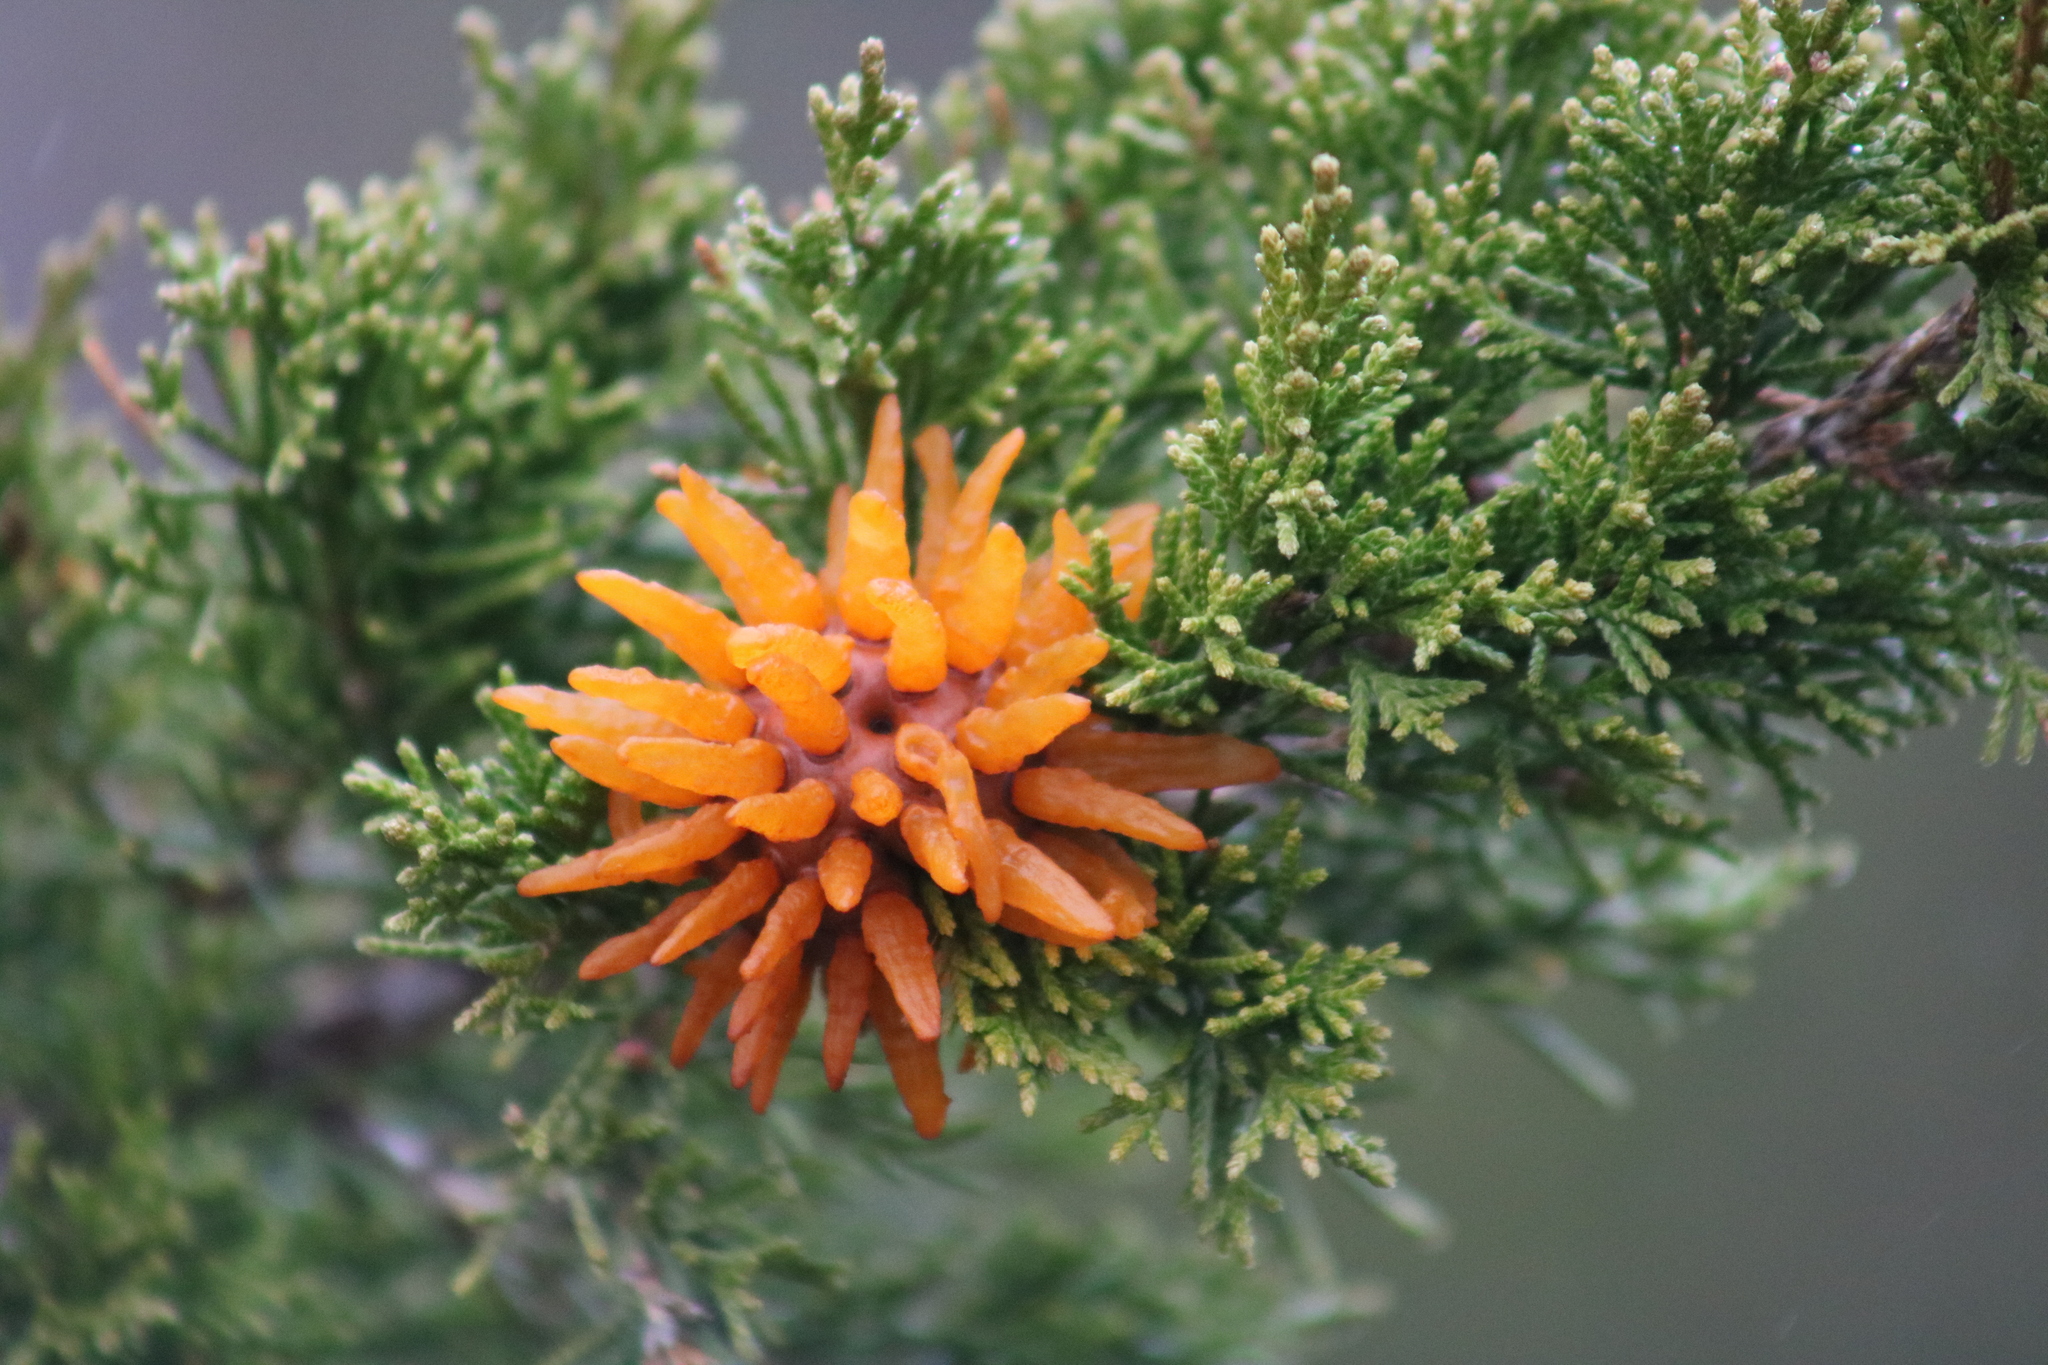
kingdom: Fungi
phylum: Basidiomycota
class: Pucciniomycetes
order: Pucciniales
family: Gymnosporangiaceae
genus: Gymnosporangium
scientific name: Gymnosporangium juniperi-virginianae
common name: Juniper-apple rust
